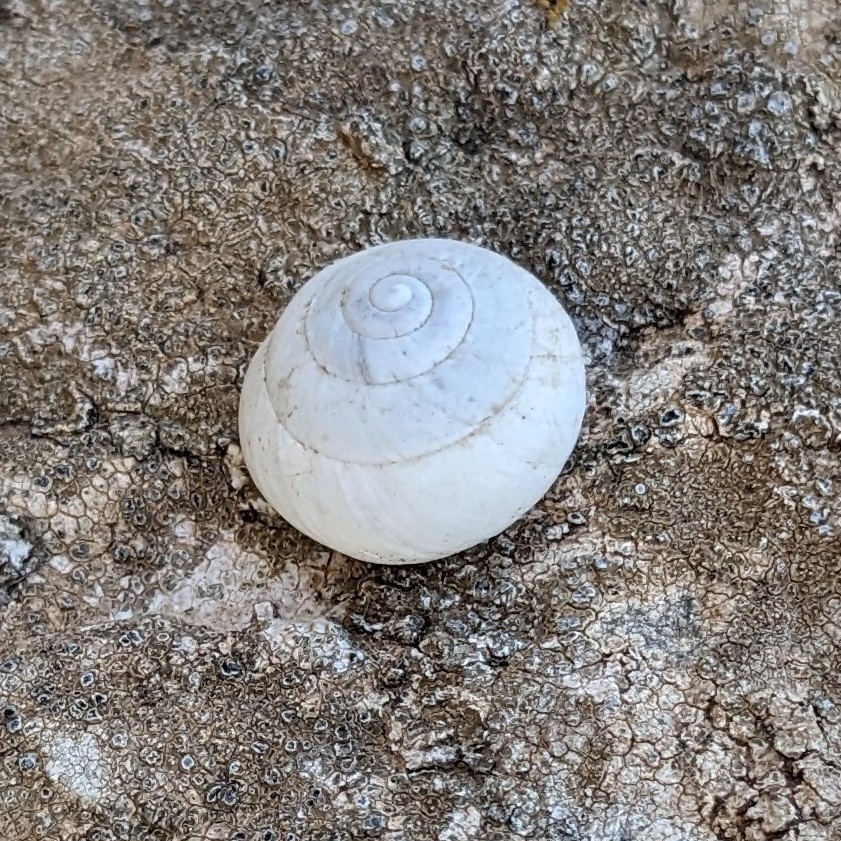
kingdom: Animalia
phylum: Mollusca
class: Gastropoda
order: Stylommatophora
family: Sphincterochilidae
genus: Sphincterochila
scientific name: Sphincterochila candidissima
